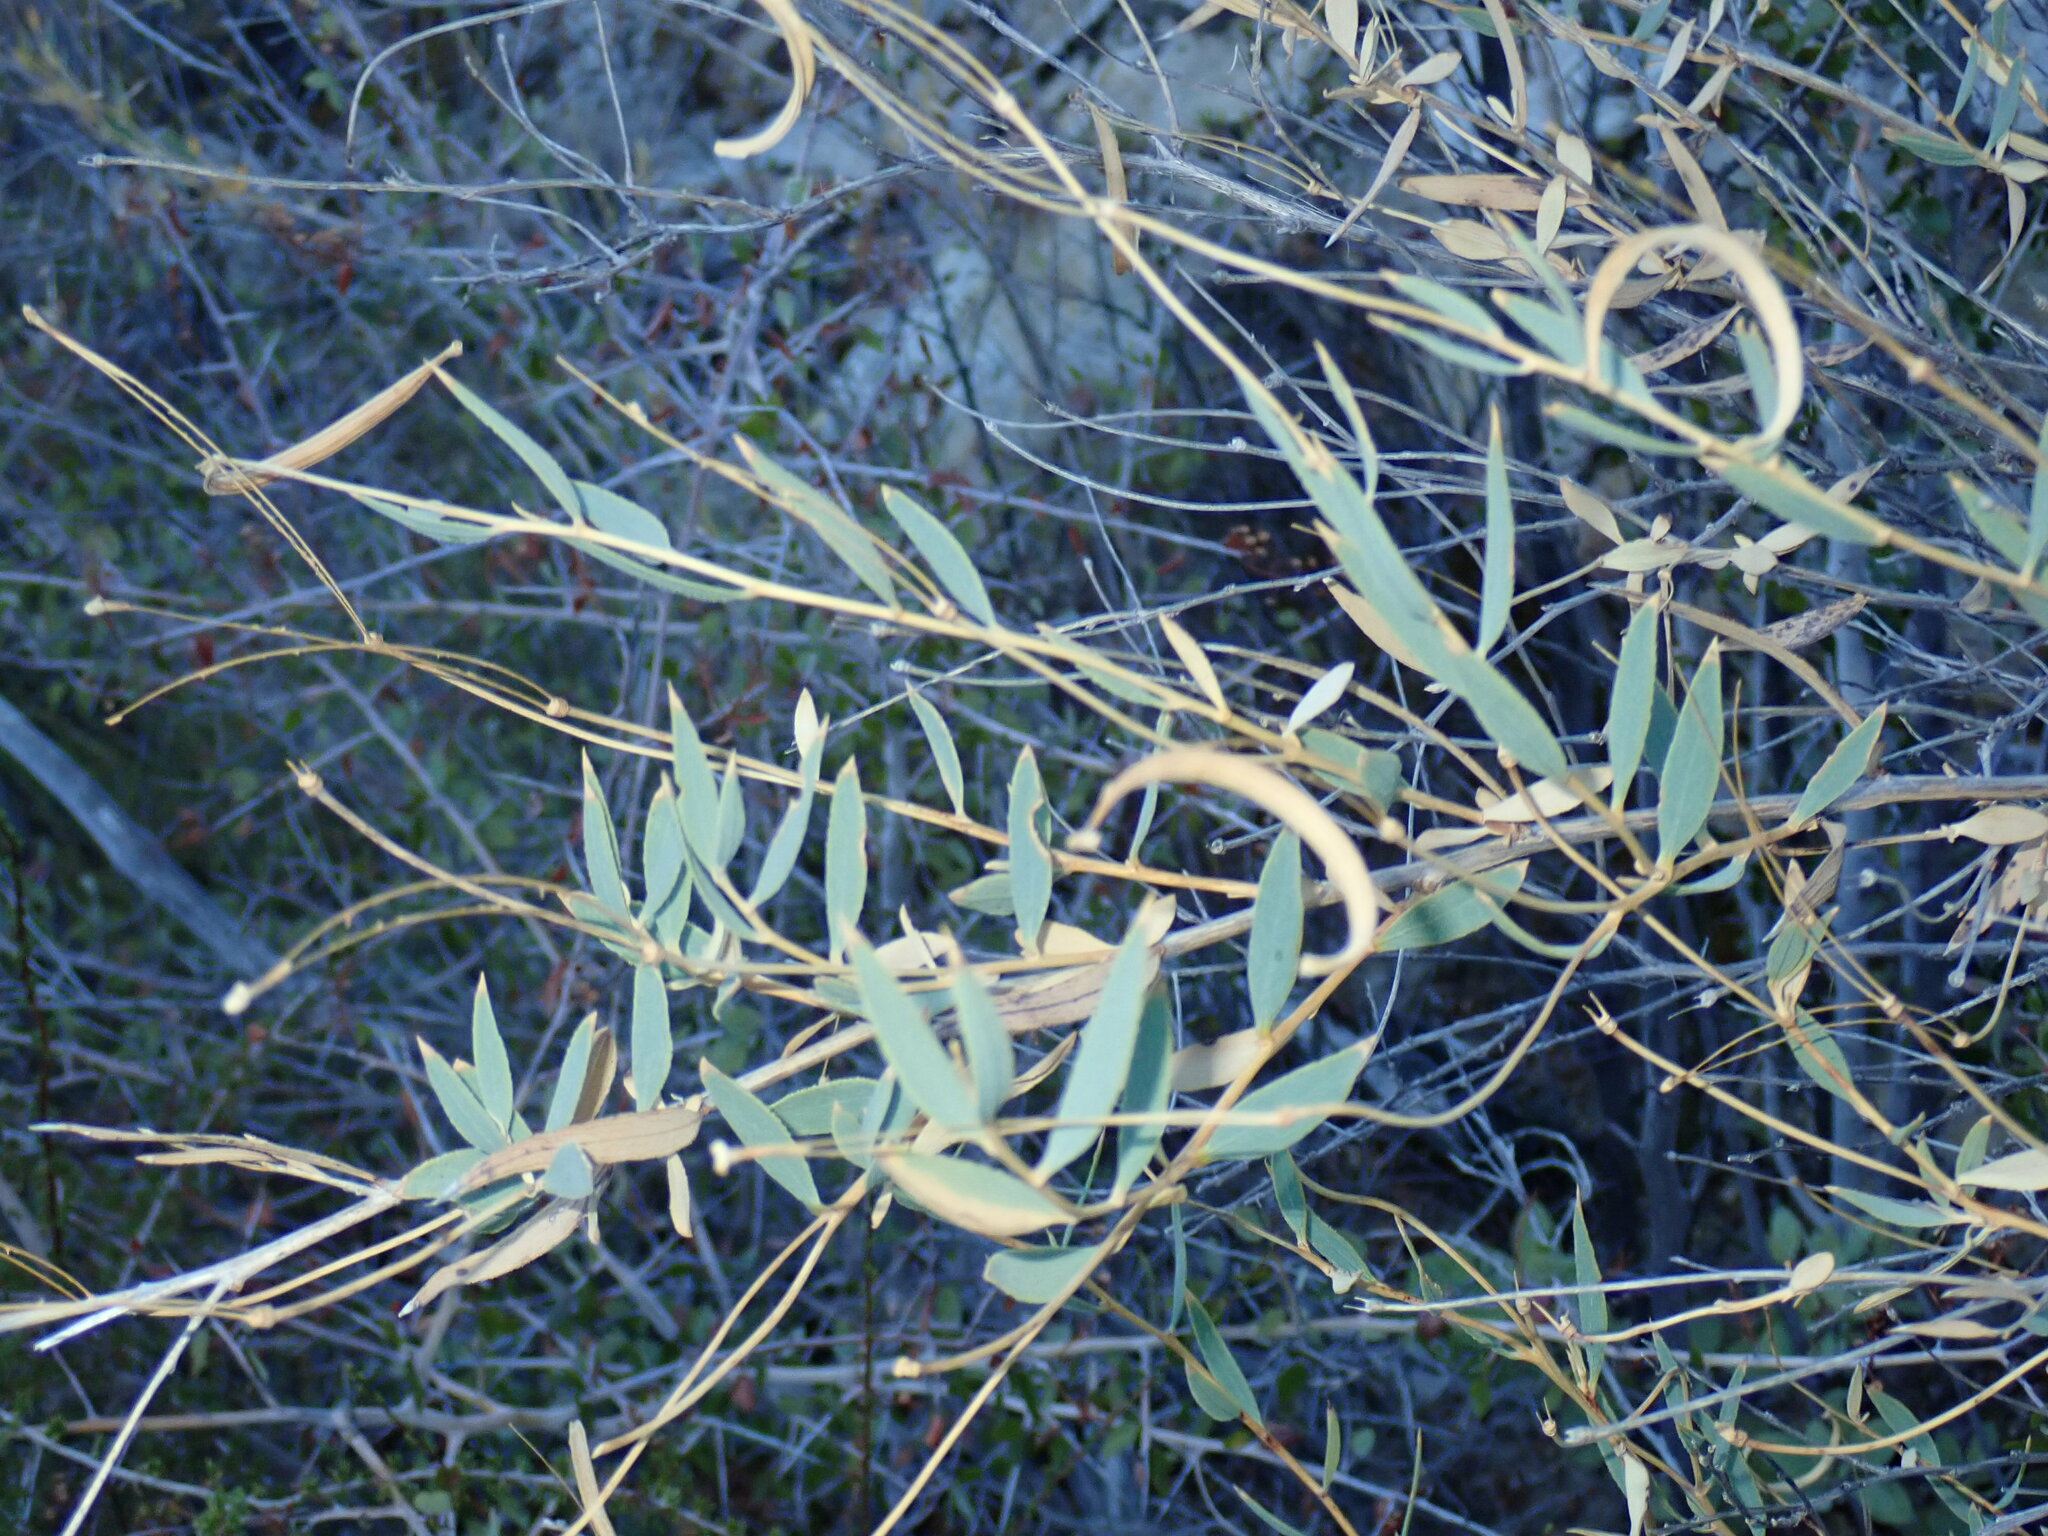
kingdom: Plantae
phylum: Tracheophyta
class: Magnoliopsida
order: Ranunculales
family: Papaveraceae
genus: Dendromecon
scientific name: Dendromecon rigida
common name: Tree poppy
